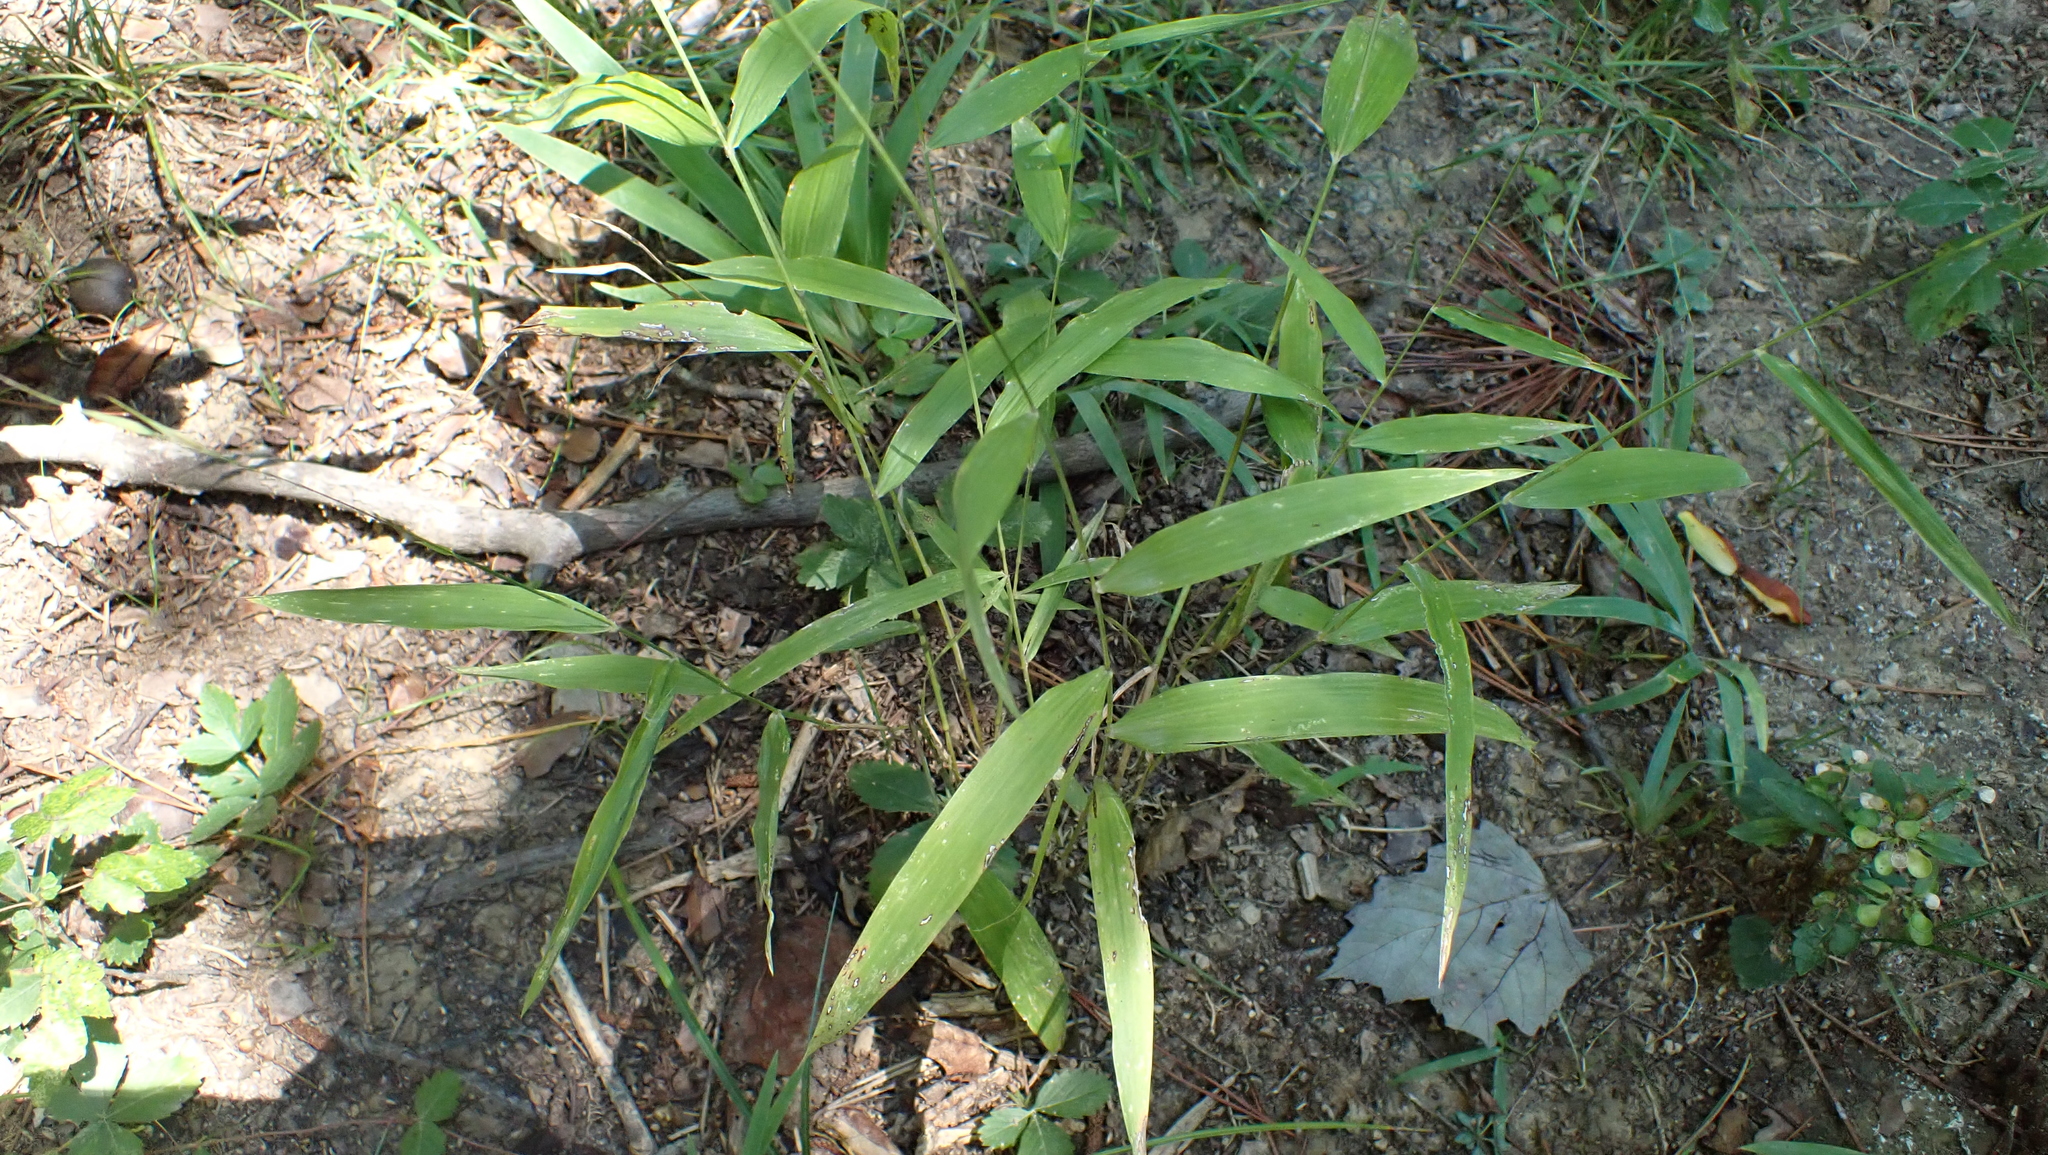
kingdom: Plantae
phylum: Tracheophyta
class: Liliopsida
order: Poales
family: Poaceae
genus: Brachyelytrum
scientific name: Brachyelytrum erectum
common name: Bearded shorthusk
